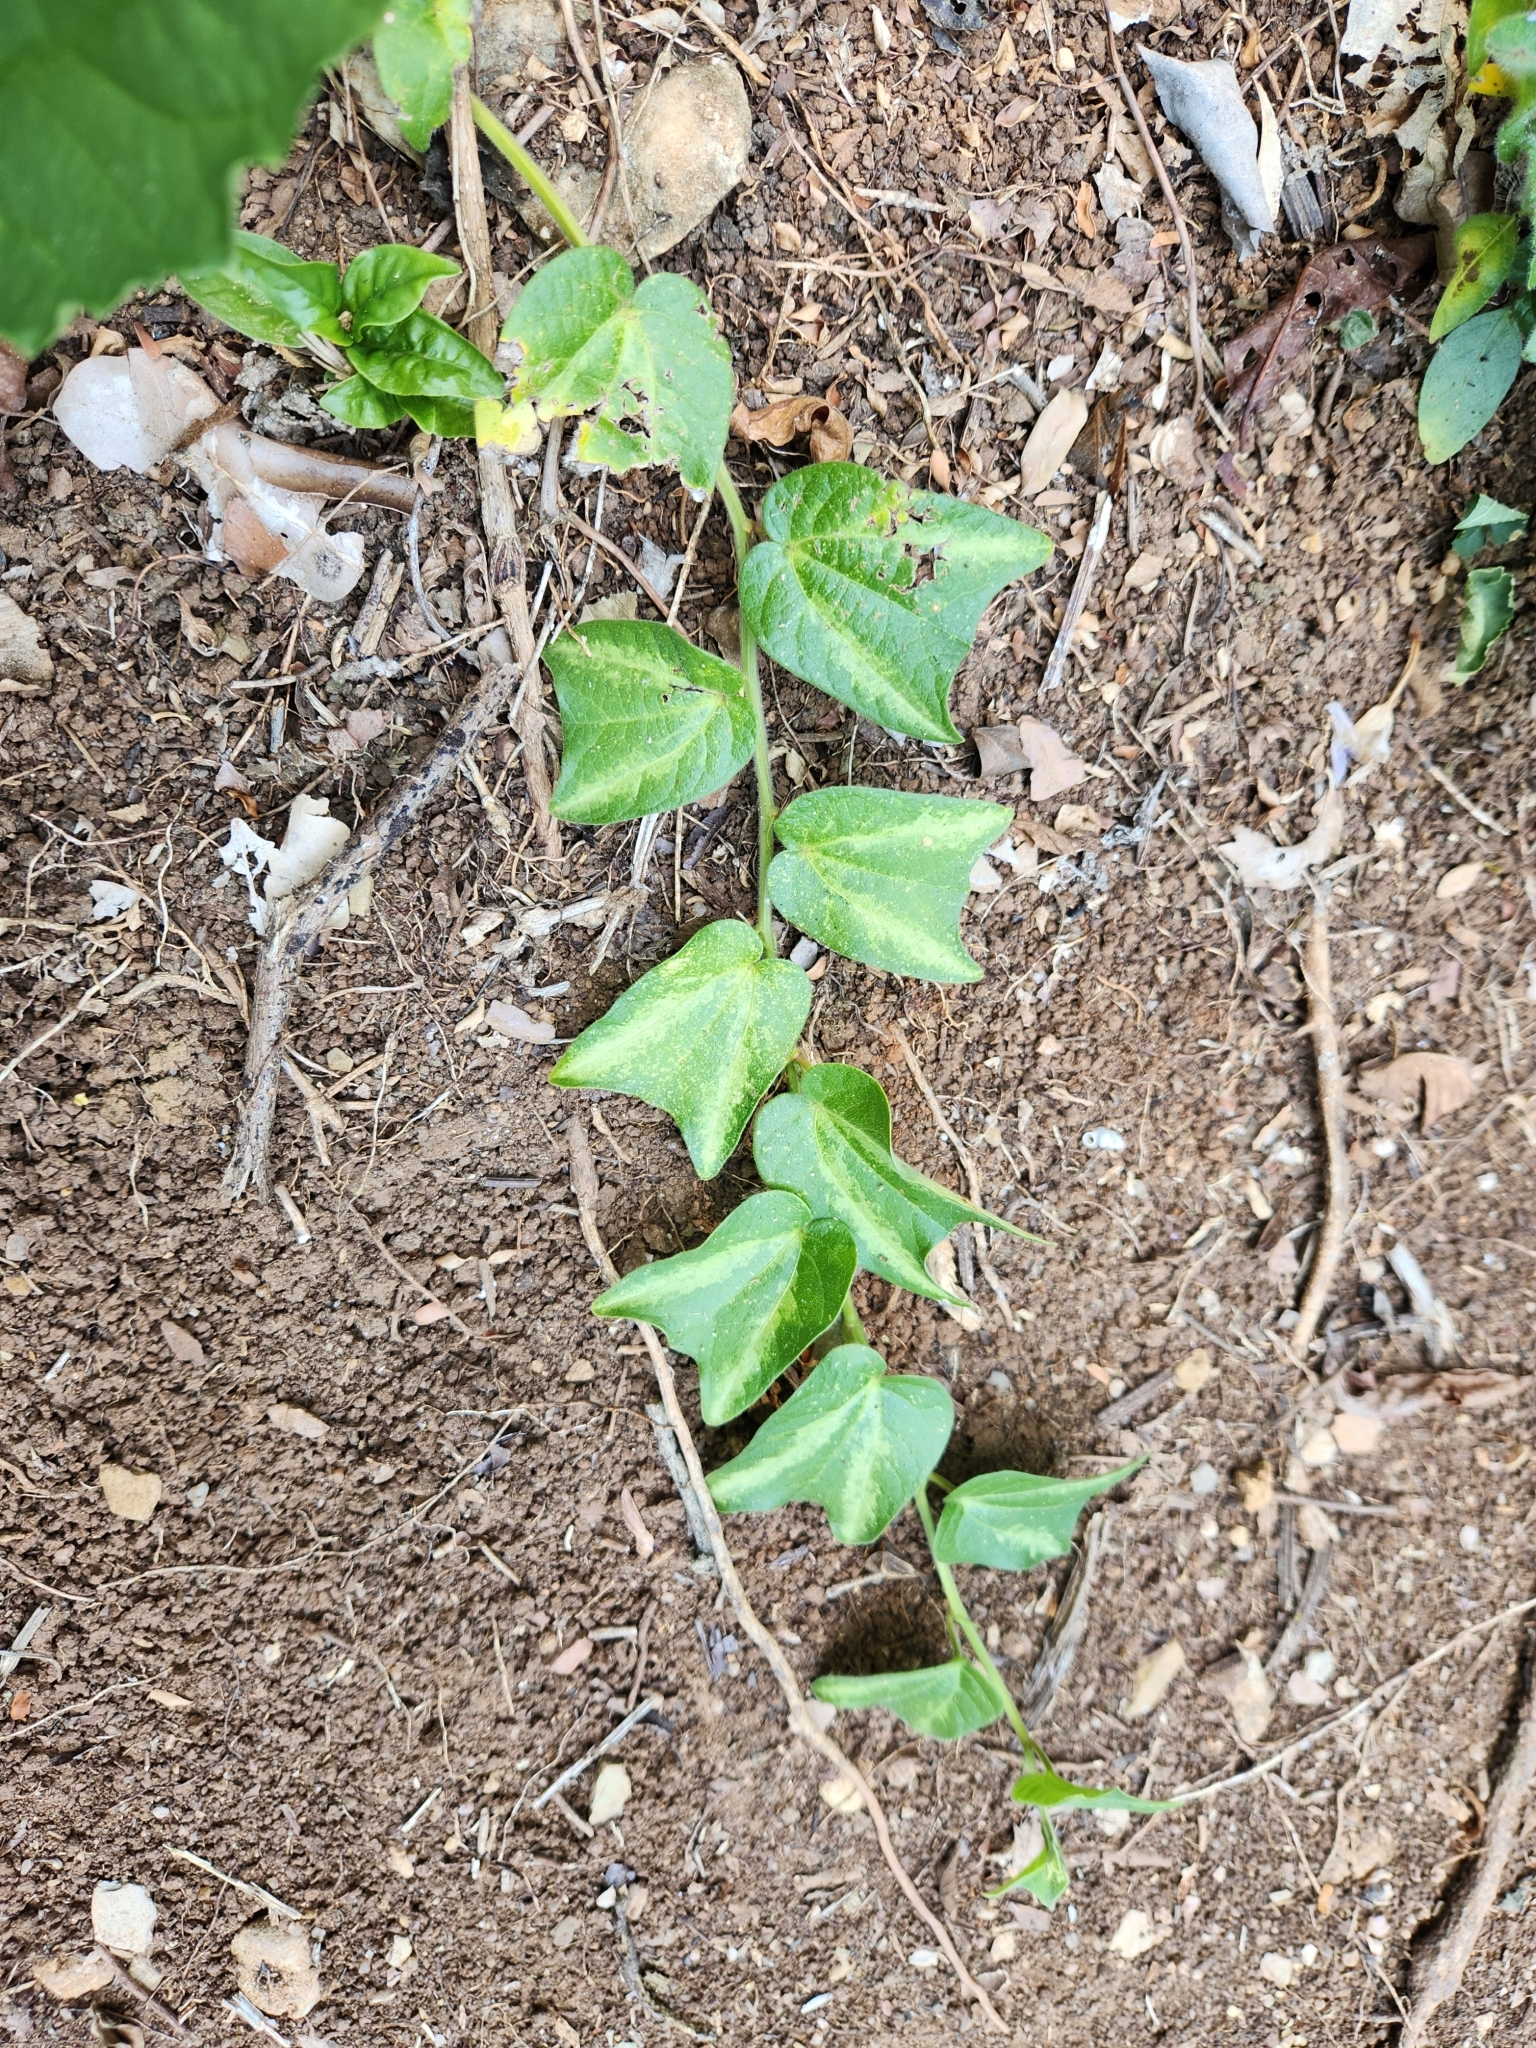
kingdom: Plantae
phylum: Tracheophyta
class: Magnoliopsida
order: Malpighiales
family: Passifloraceae
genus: Passiflora
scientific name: Passiflora costaricensis
